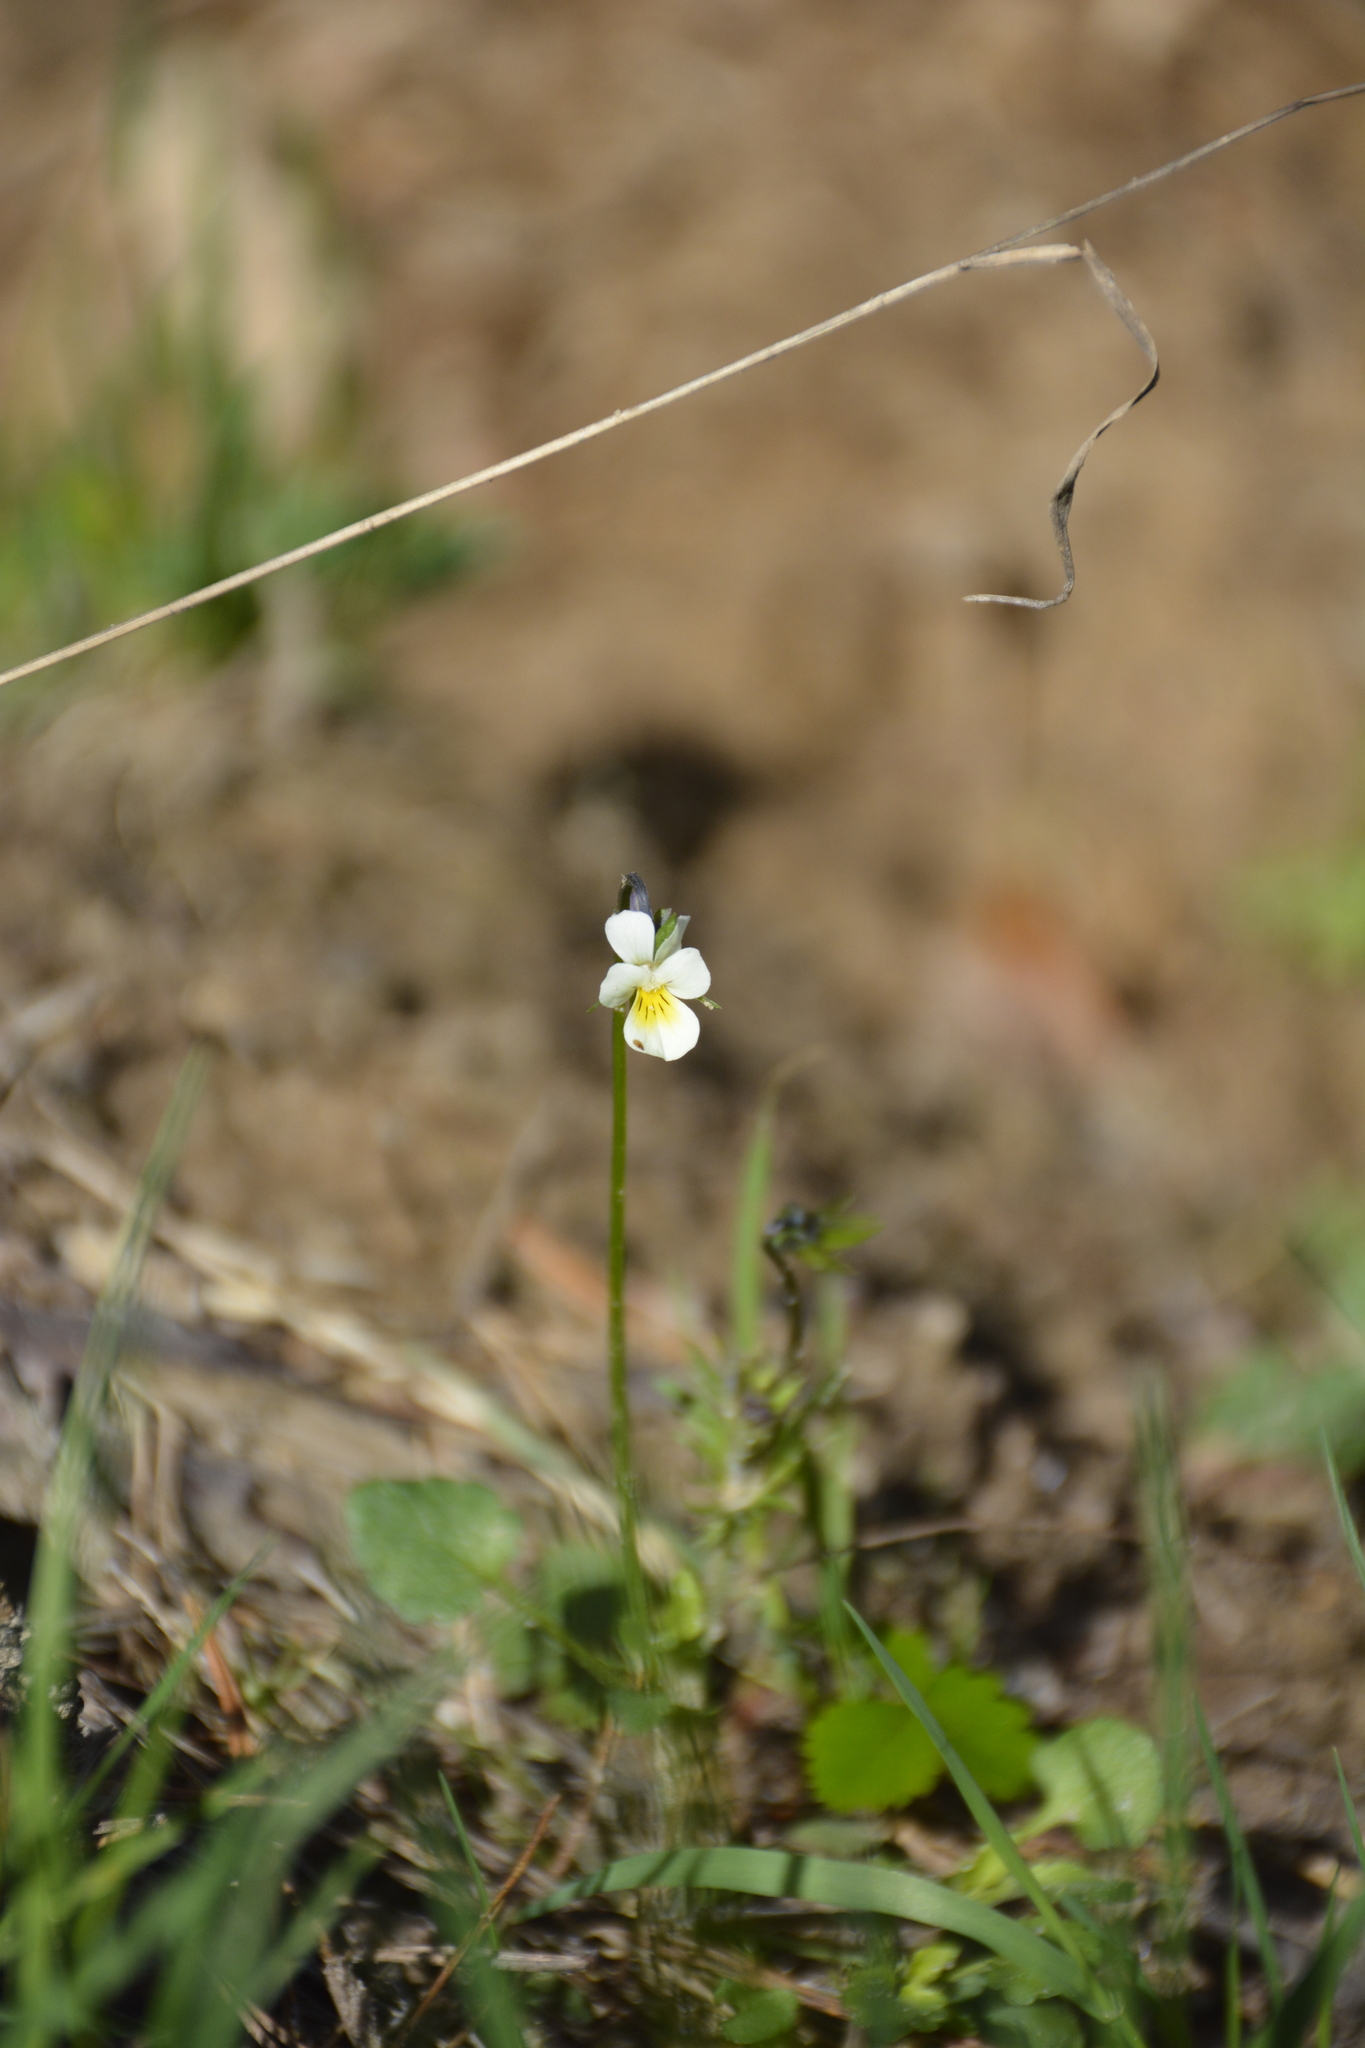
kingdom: Plantae
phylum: Tracheophyta
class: Magnoliopsida
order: Malpighiales
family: Violaceae
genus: Viola
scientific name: Viola arvensis
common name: Field pansy
